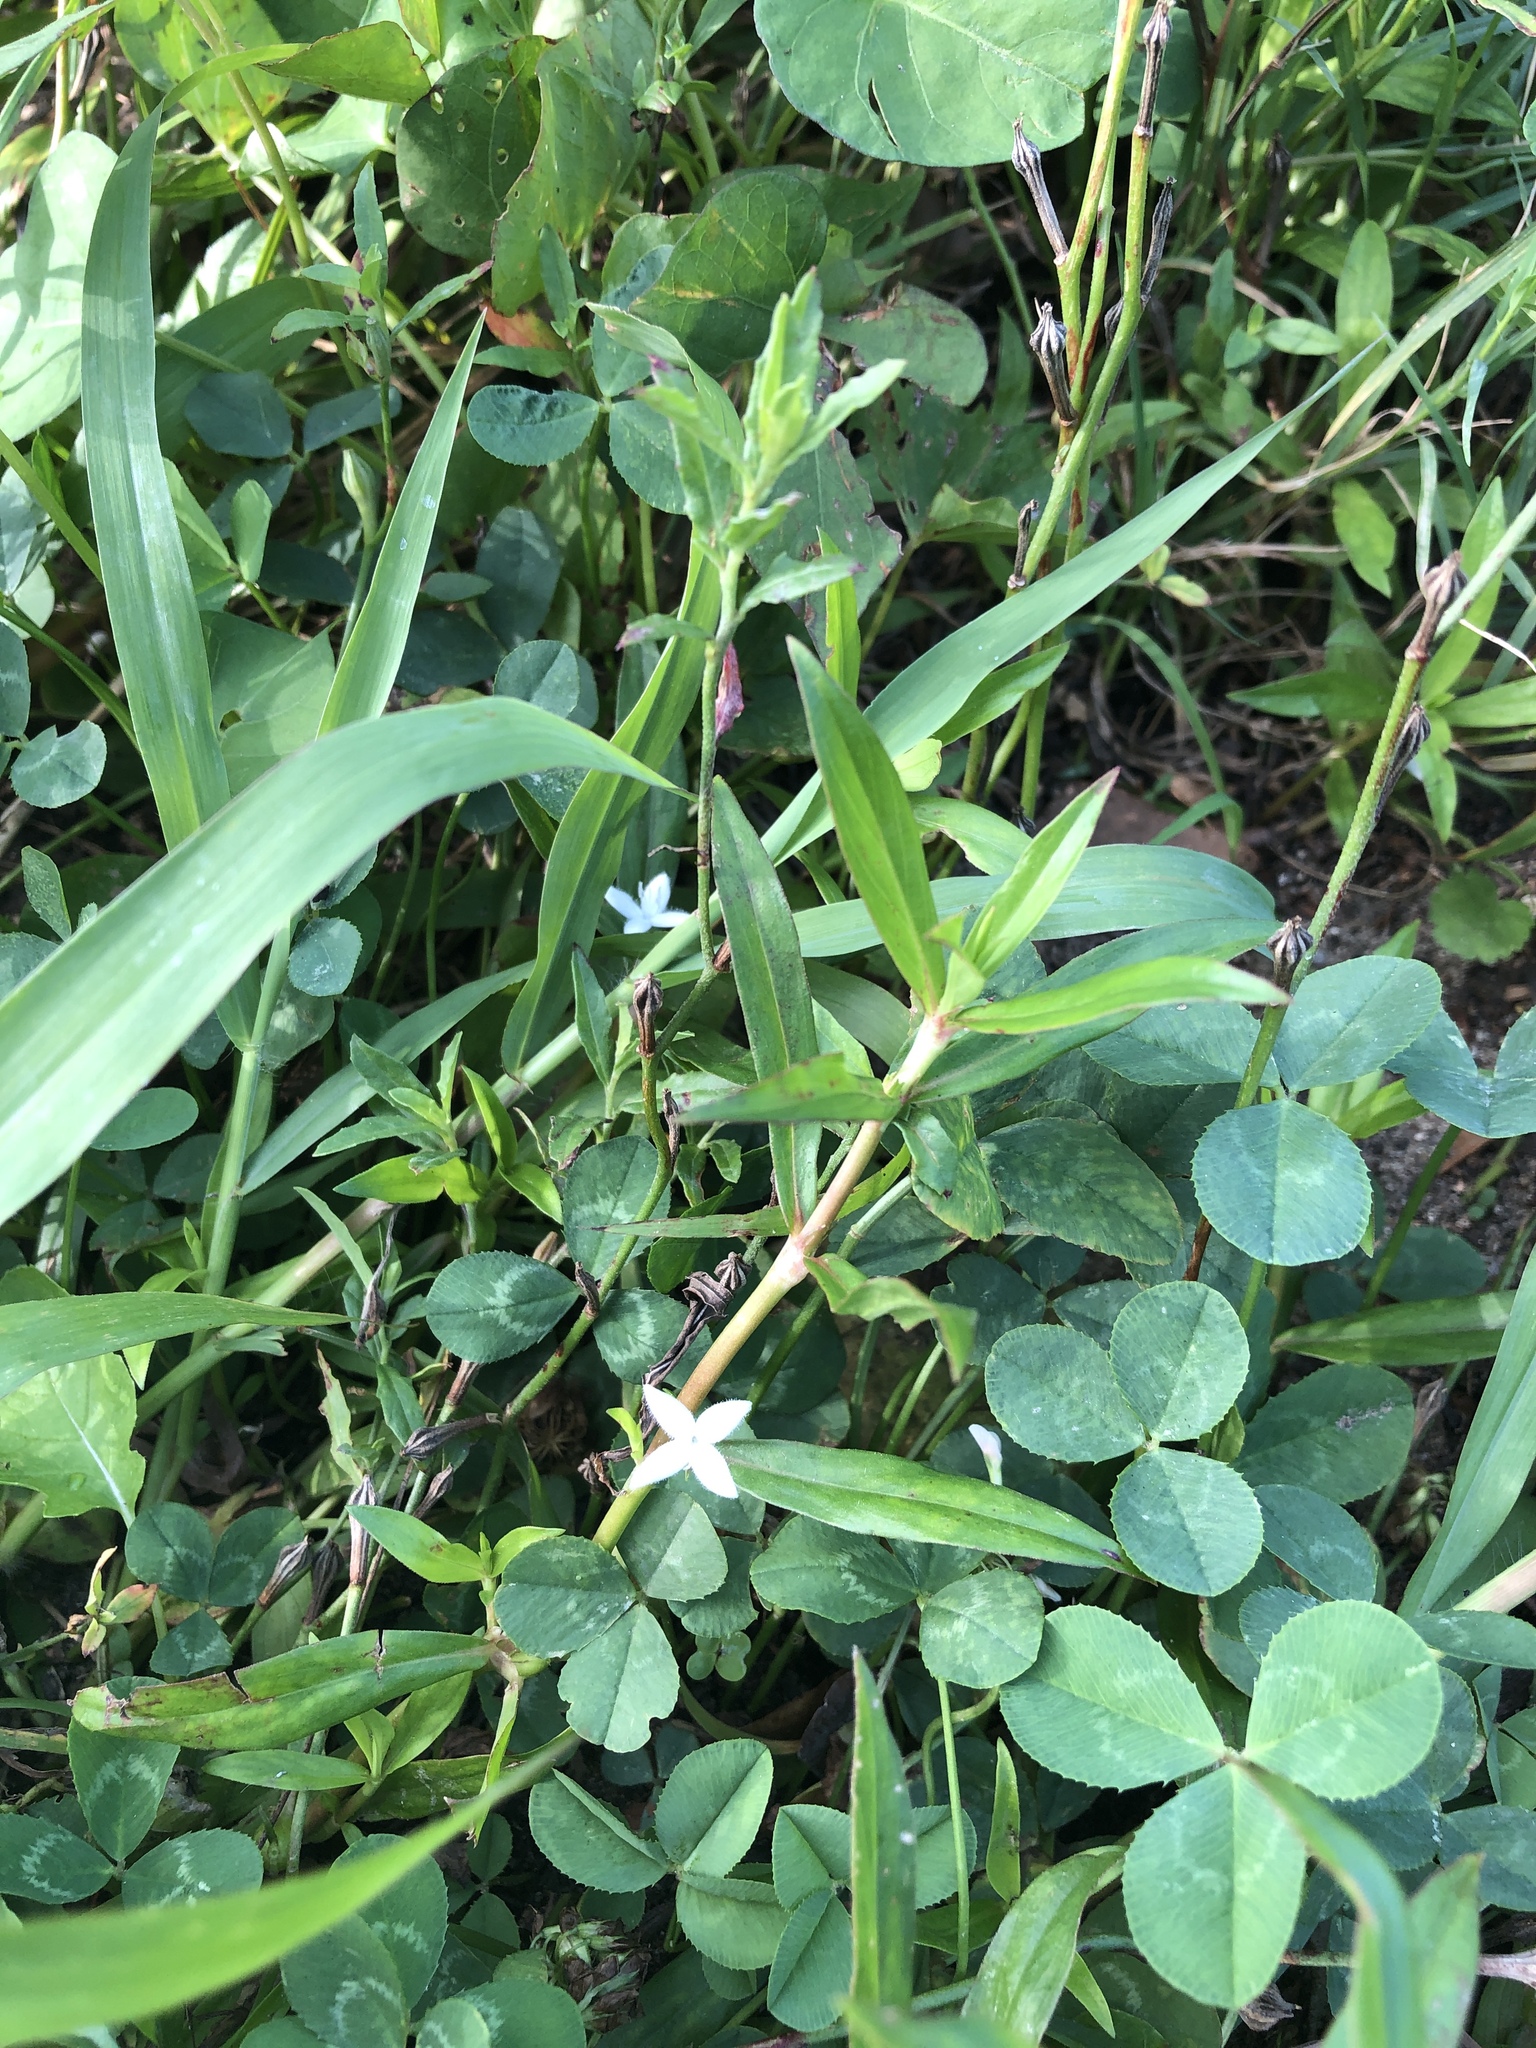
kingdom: Plantae
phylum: Tracheophyta
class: Magnoliopsida
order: Gentianales
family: Rubiaceae
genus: Diodia
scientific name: Diodia virginiana
